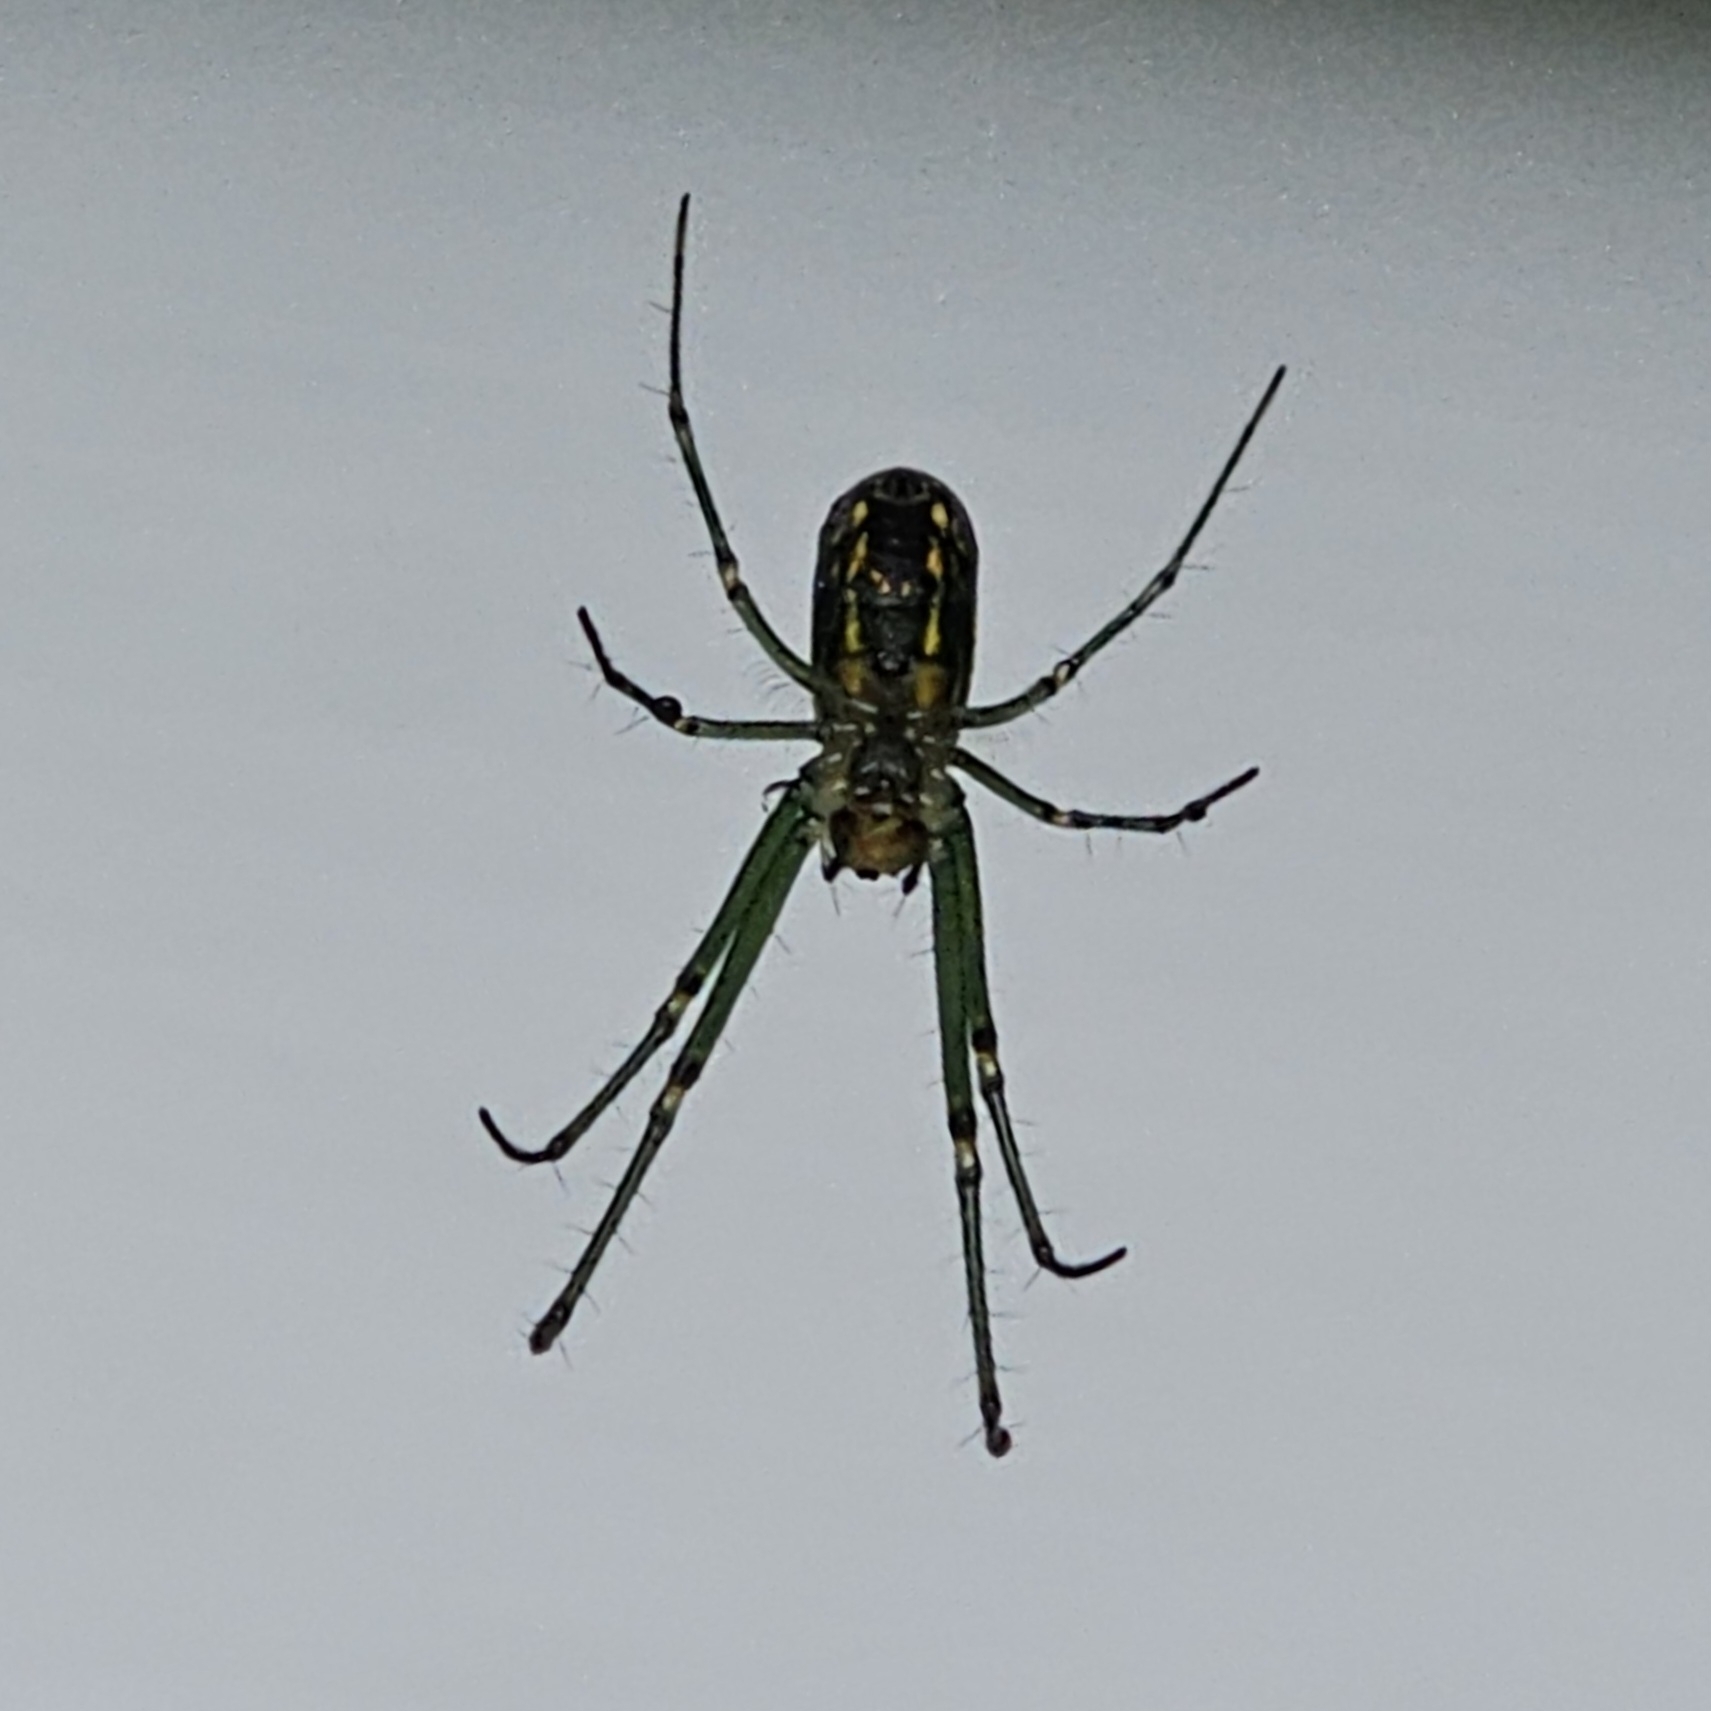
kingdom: Animalia
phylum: Arthropoda
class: Arachnida
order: Araneae
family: Tetragnathidae
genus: Leucauge
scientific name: Leucauge venusta
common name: Longjawed orb weavers
